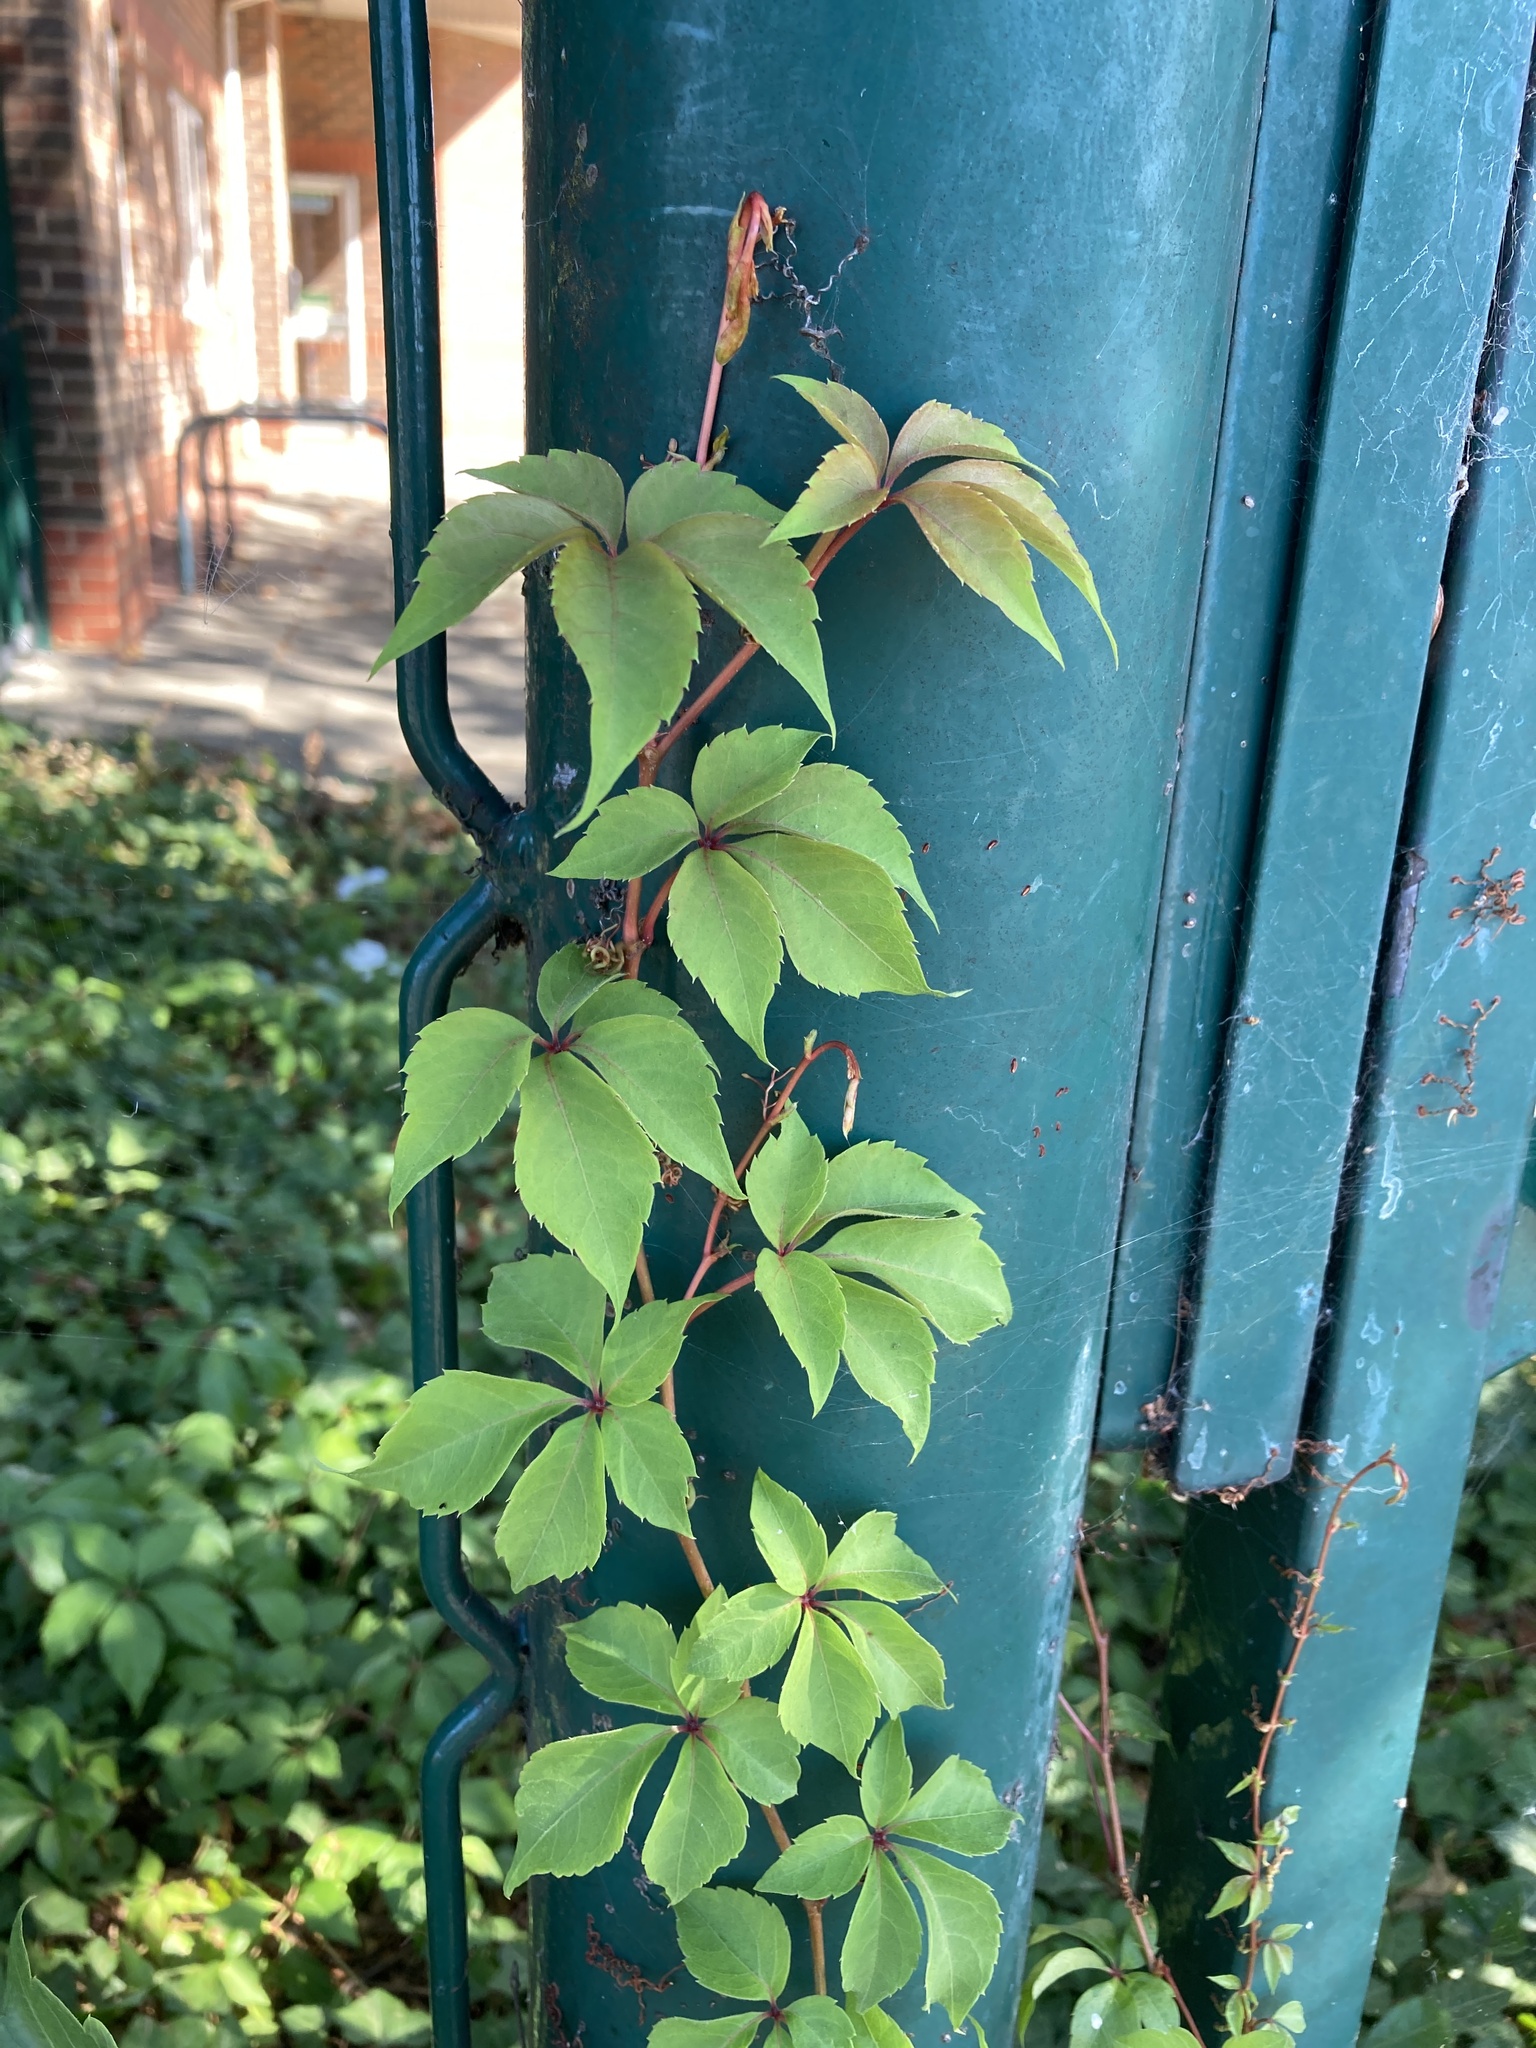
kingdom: Plantae
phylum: Tracheophyta
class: Magnoliopsida
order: Vitales
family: Vitaceae
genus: Parthenocissus
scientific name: Parthenocissus quinquefolia
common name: Virginia-creeper
